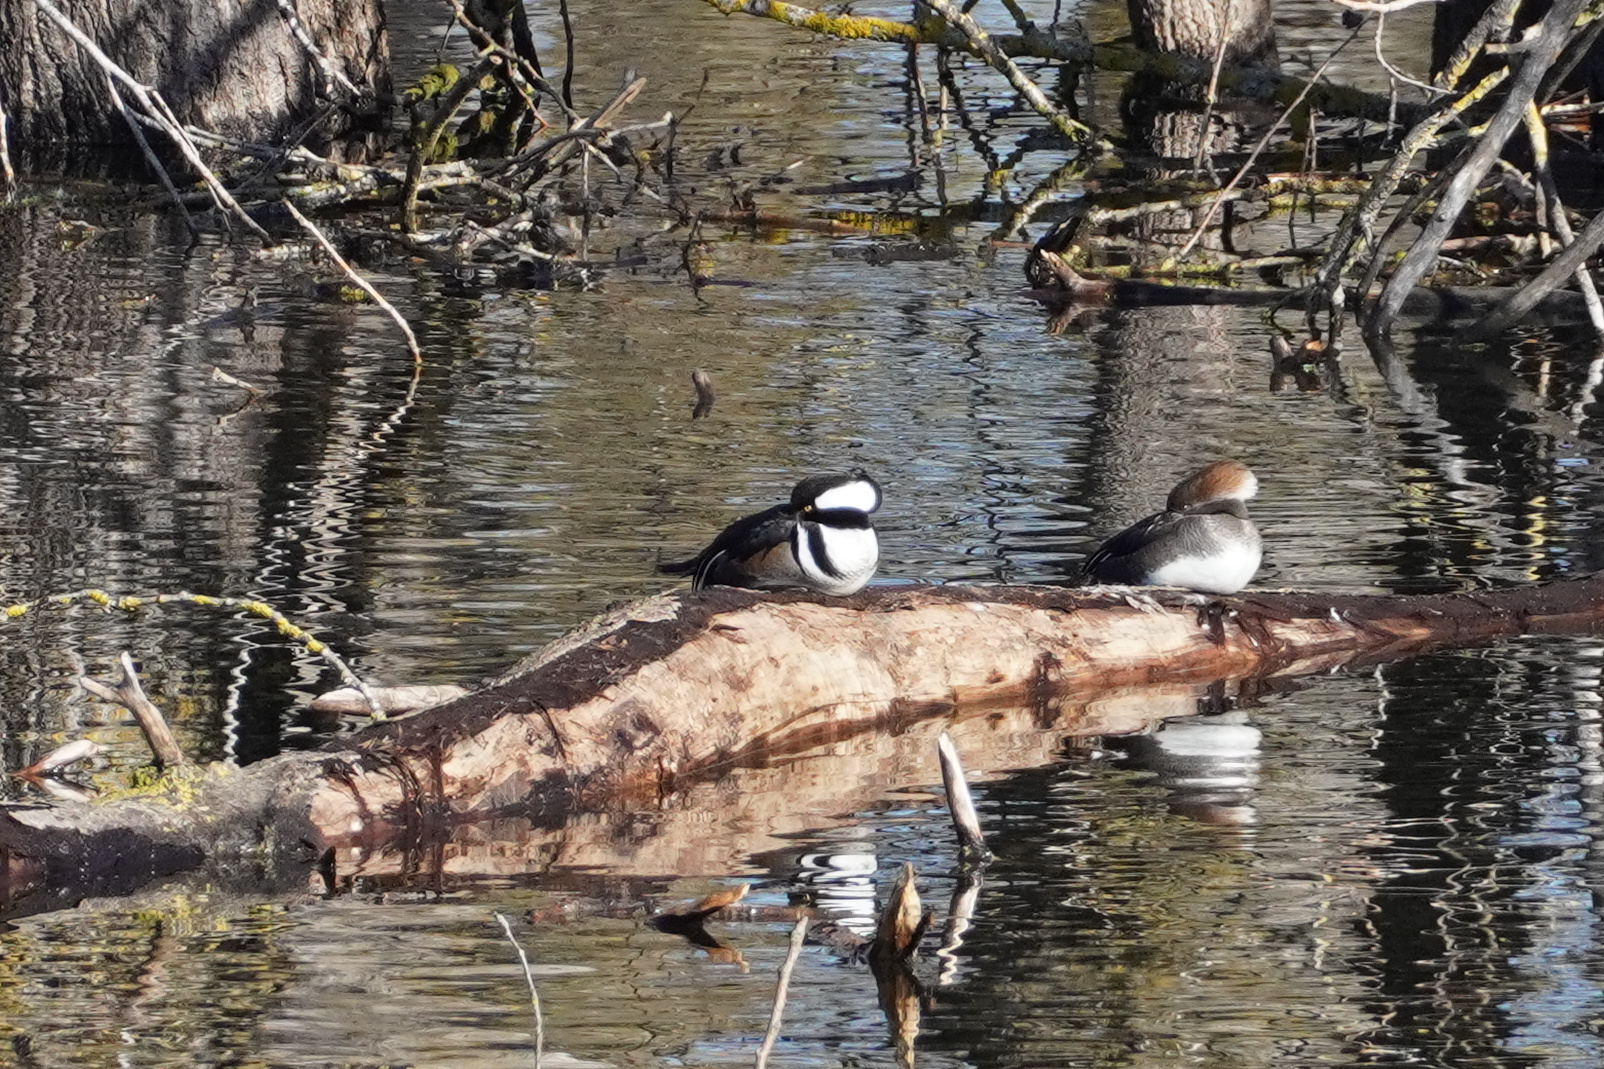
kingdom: Animalia
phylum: Chordata
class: Aves
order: Anseriformes
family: Anatidae
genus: Lophodytes
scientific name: Lophodytes cucullatus
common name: Hooded merganser
